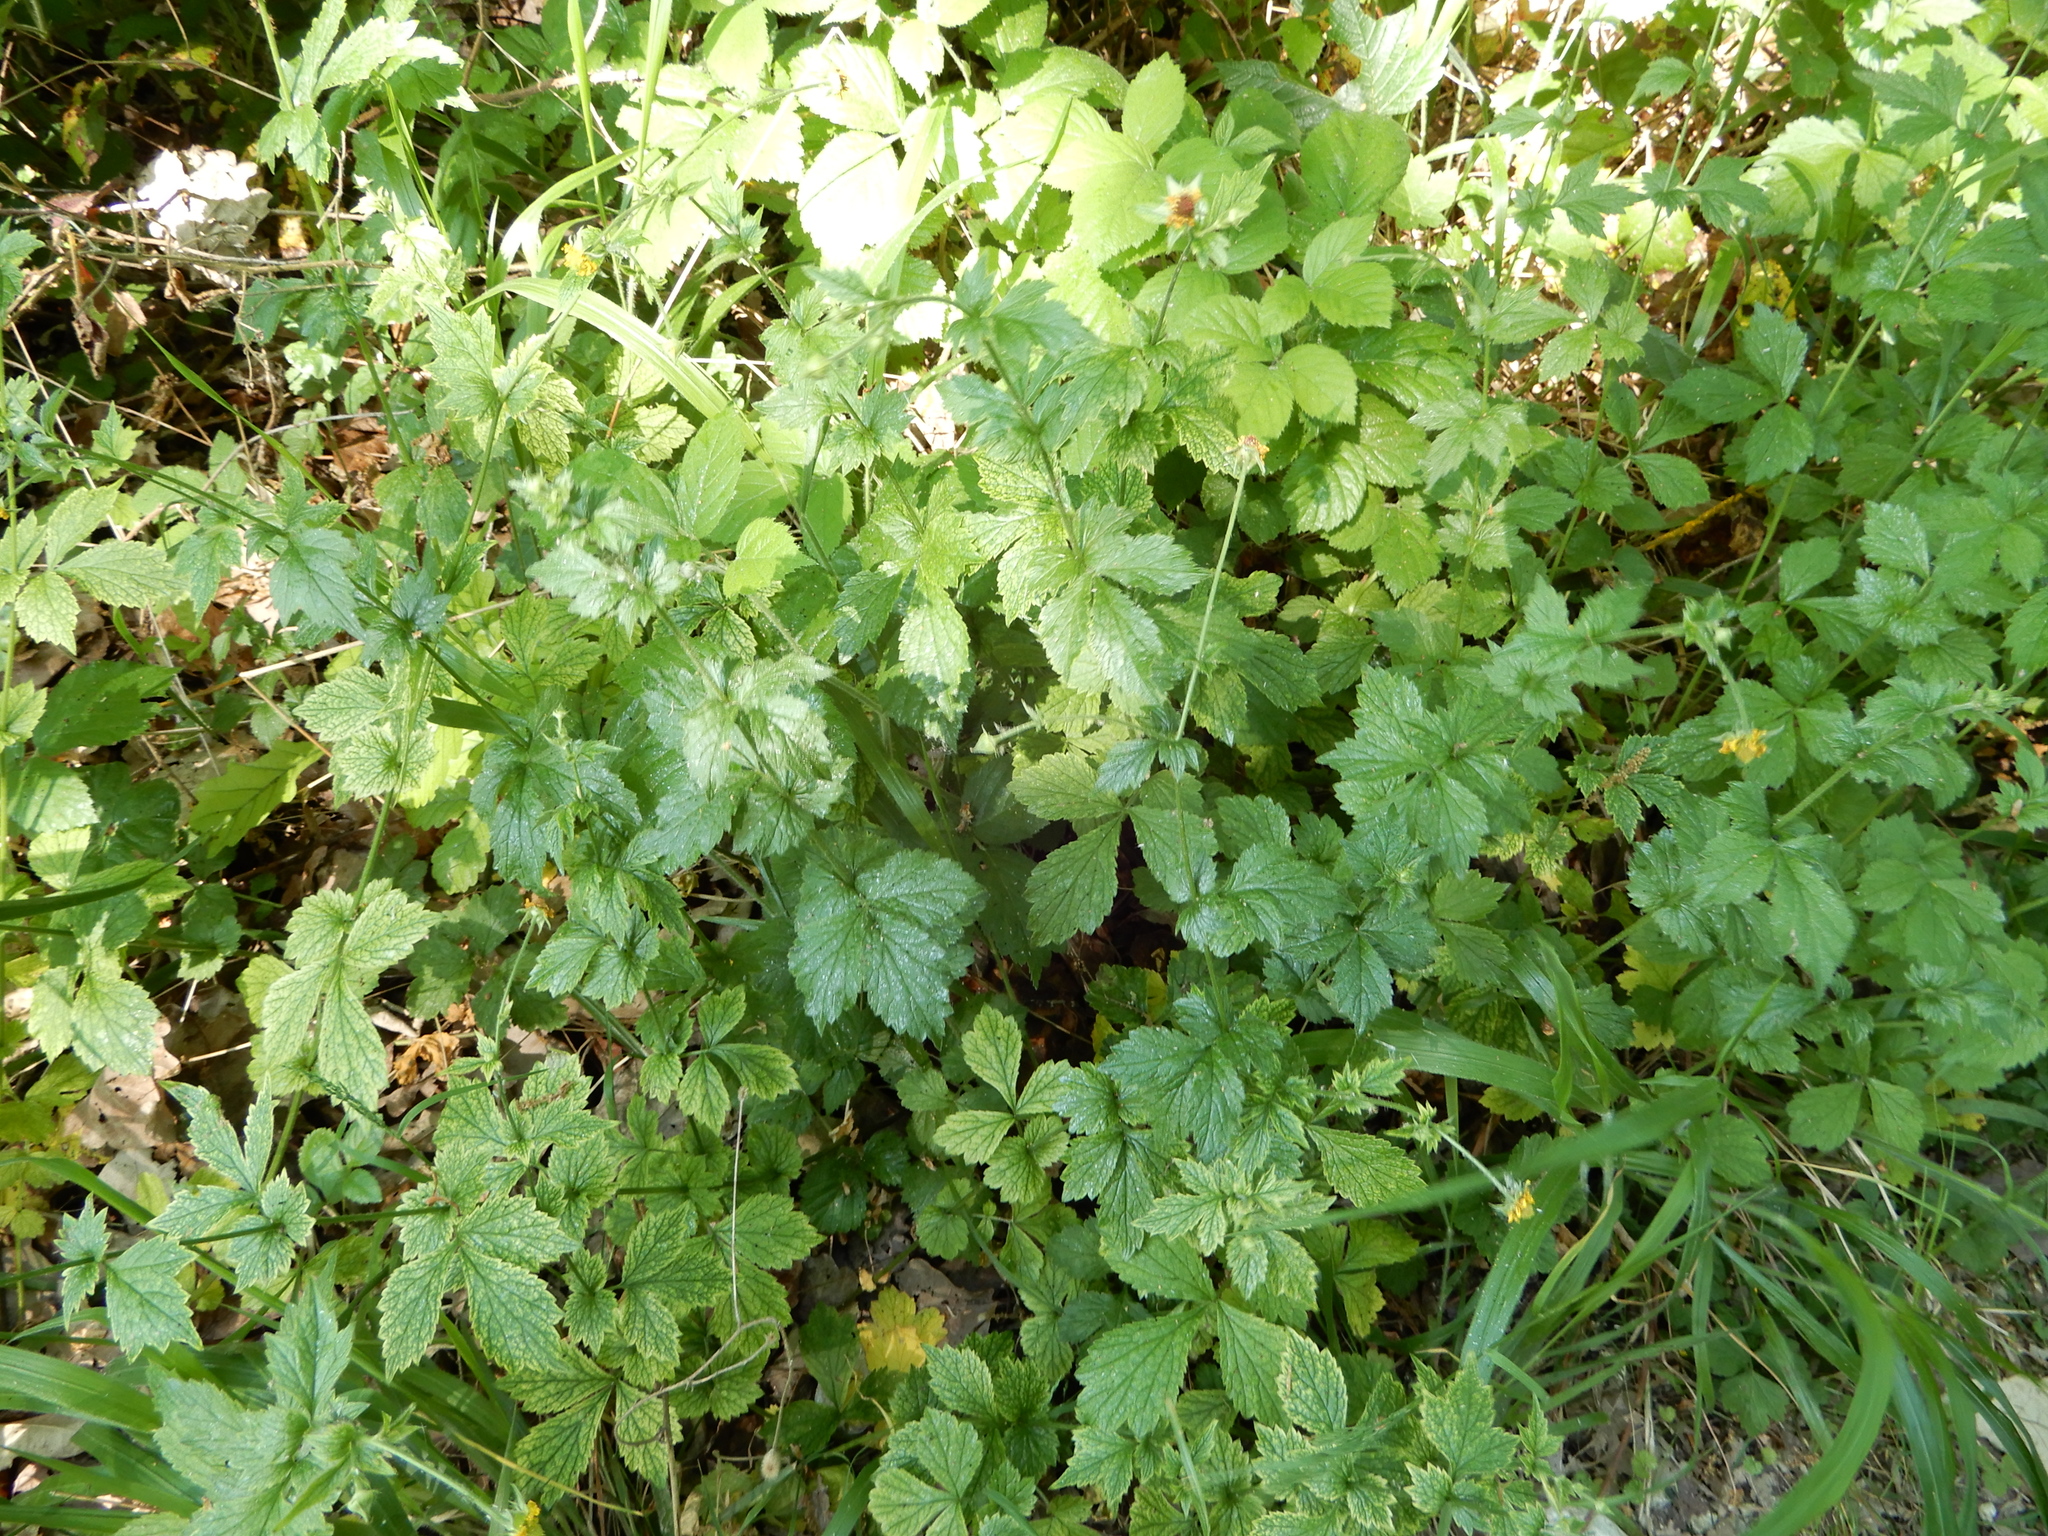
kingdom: Plantae
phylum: Tracheophyta
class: Magnoliopsida
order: Rosales
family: Rosaceae
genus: Geum
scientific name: Geum urbanum
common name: Wood avens
